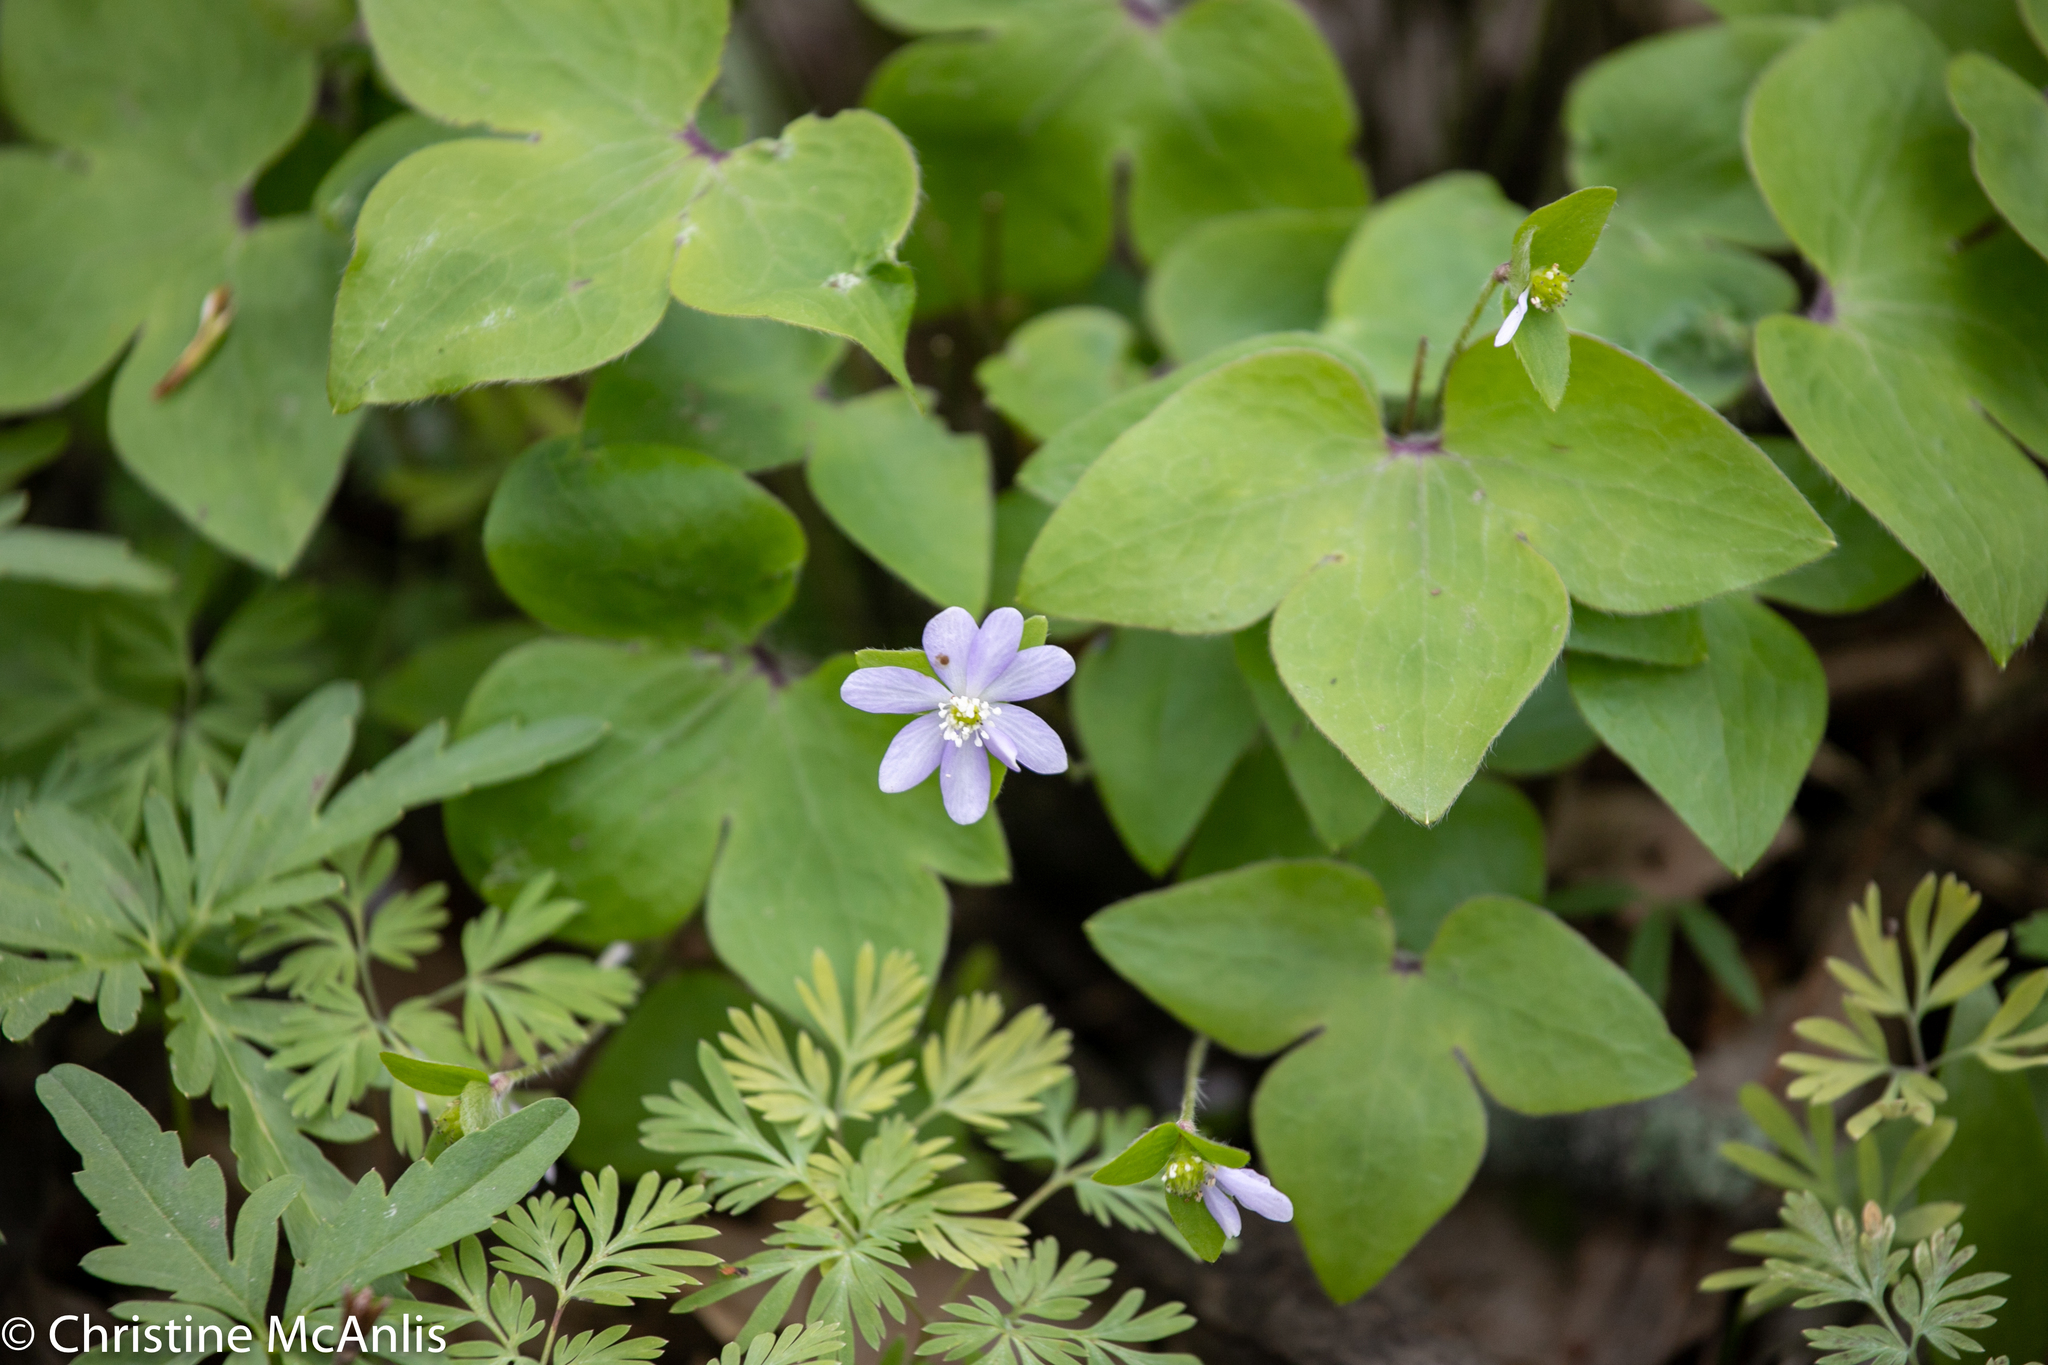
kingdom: Plantae
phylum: Tracheophyta
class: Magnoliopsida
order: Ranunculales
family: Ranunculaceae
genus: Hepatica
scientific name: Hepatica acutiloba
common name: Sharp-lobed hepatica
